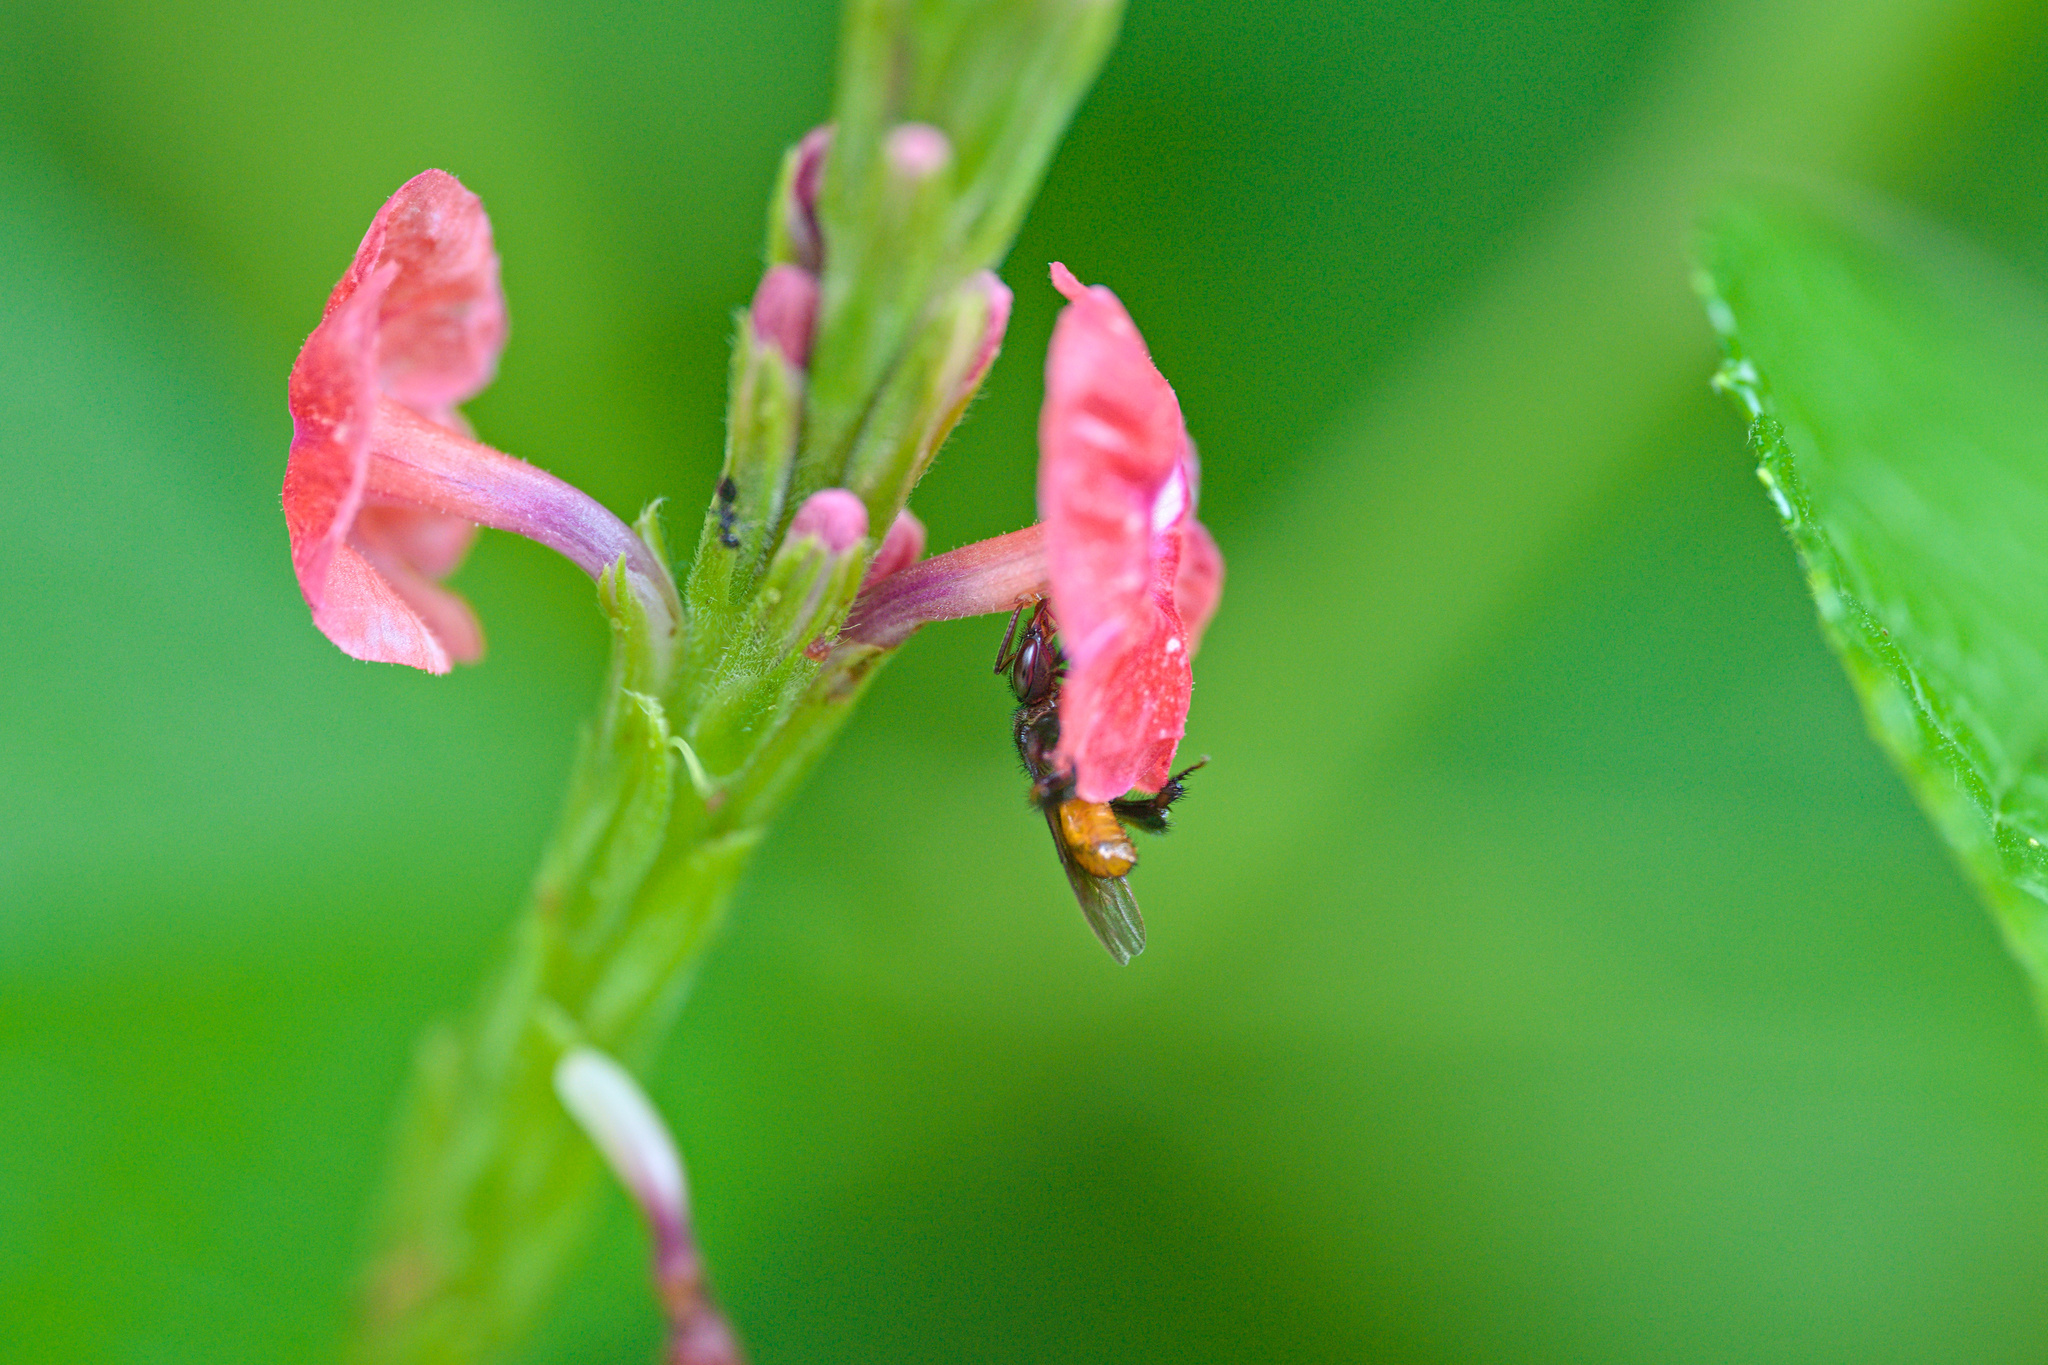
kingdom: Animalia
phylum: Arthropoda
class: Insecta
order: Hymenoptera
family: Apidae
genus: Trigona
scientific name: Trigona fulviventris
